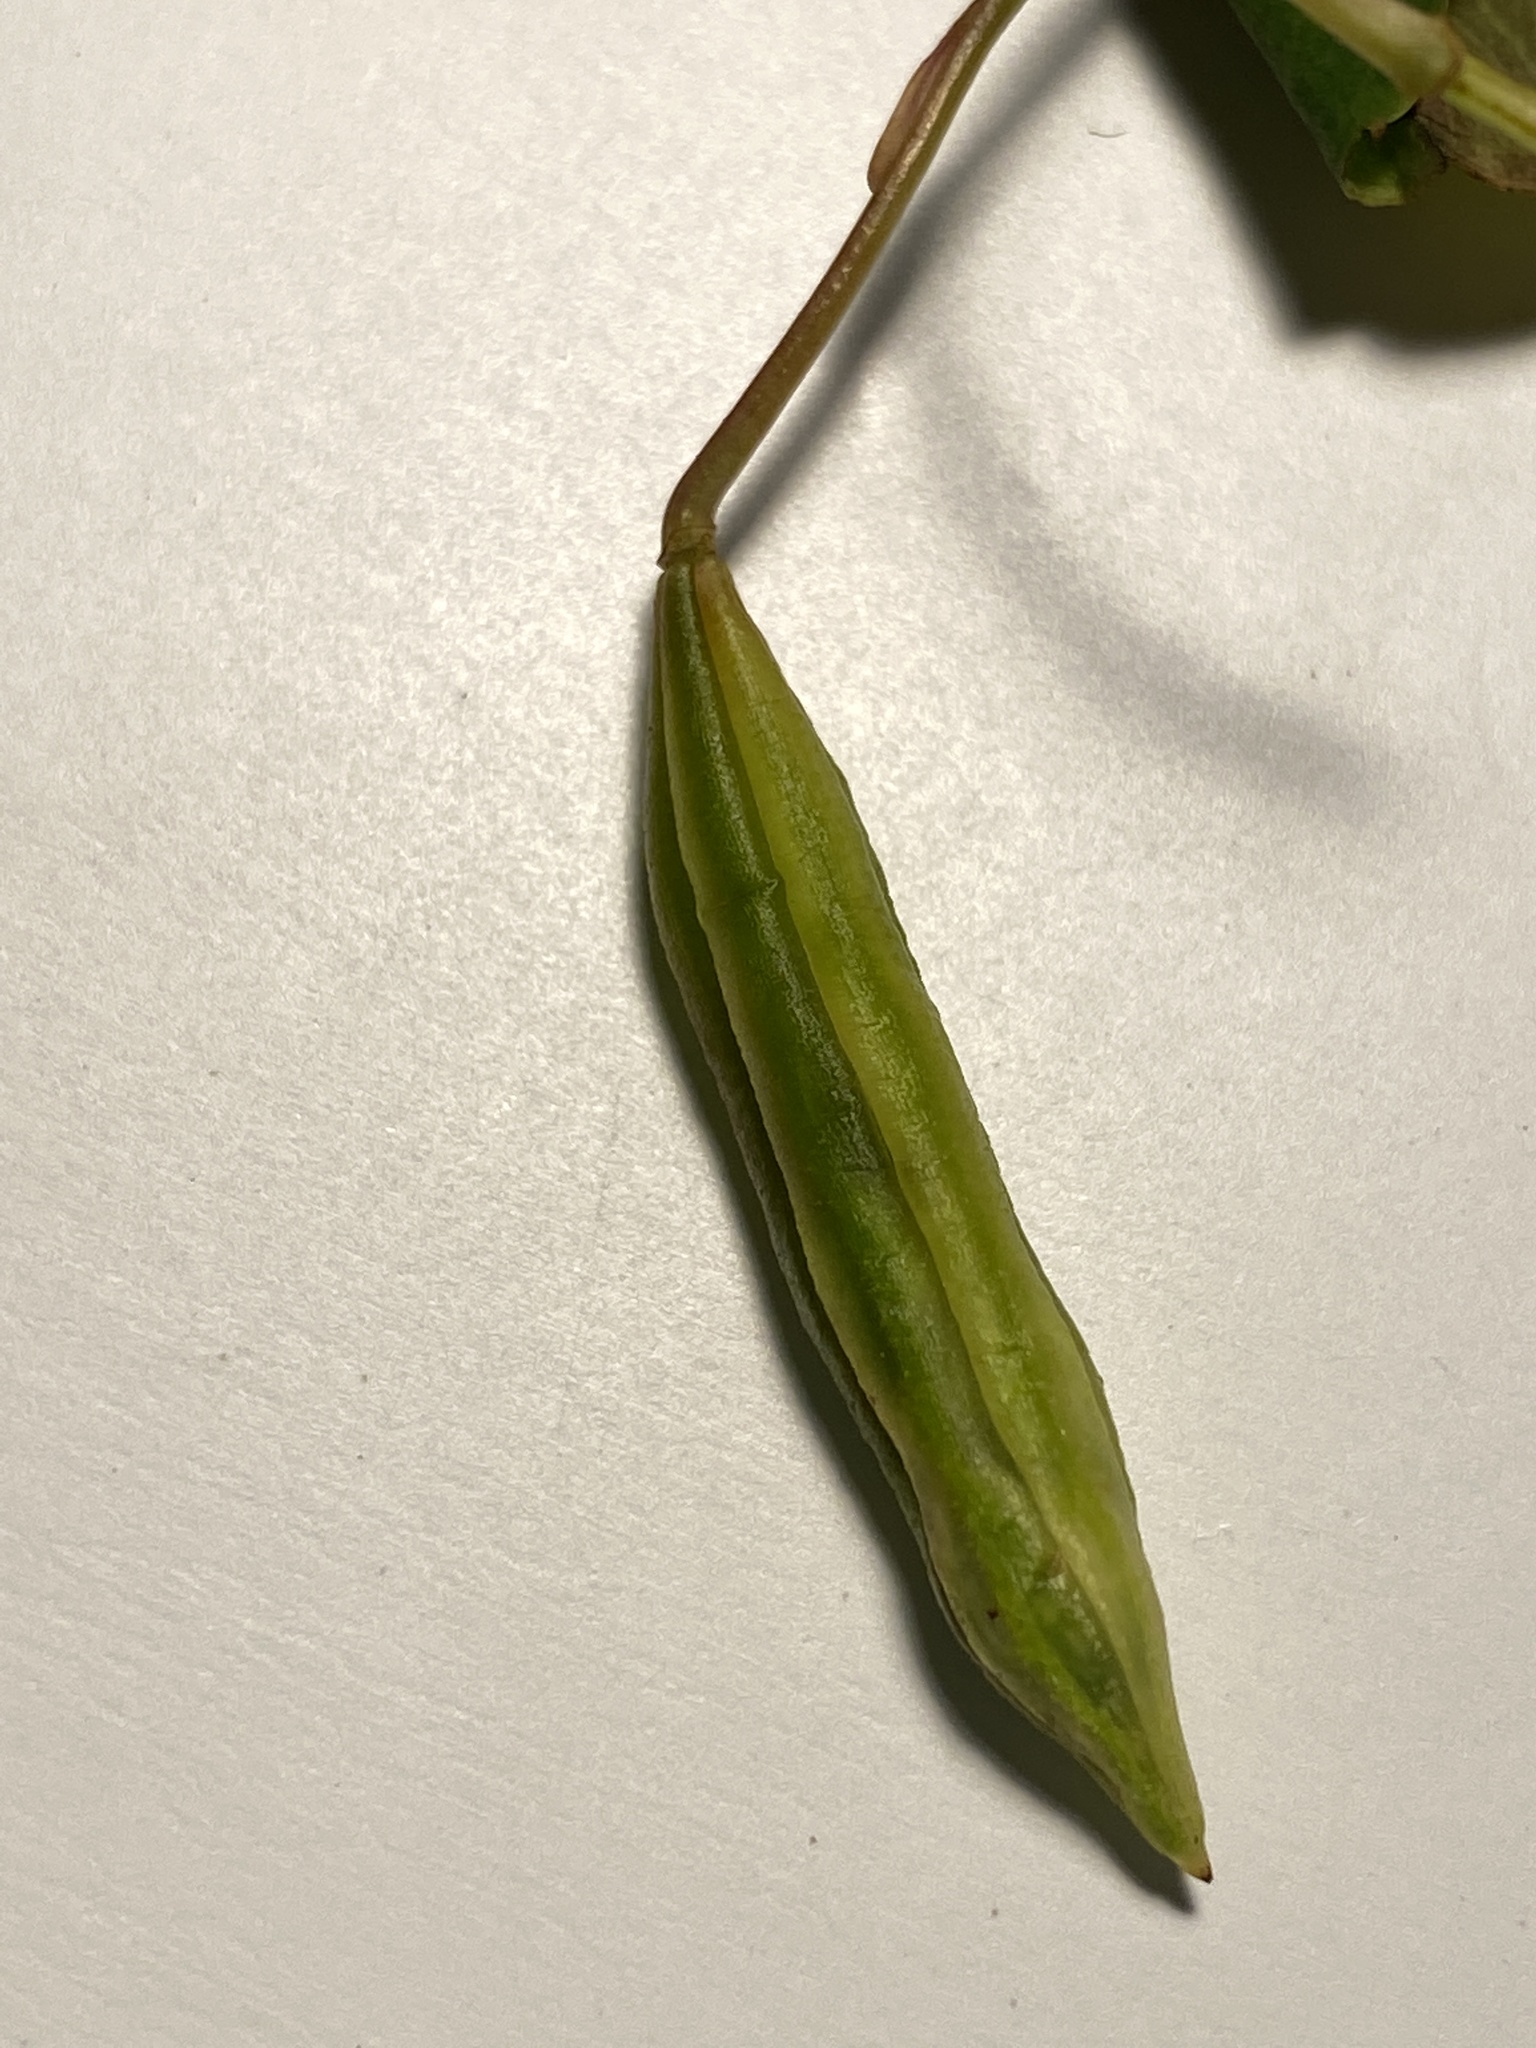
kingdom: Plantae
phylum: Tracheophyta
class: Magnoliopsida
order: Ericales
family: Balsaminaceae
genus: Impatiens
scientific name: Impatiens capensis
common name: Orange balsam
